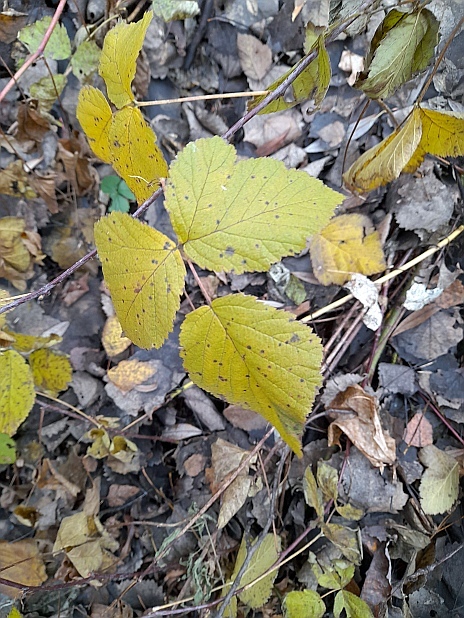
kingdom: Plantae
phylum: Tracheophyta
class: Magnoliopsida
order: Rosales
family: Rosaceae
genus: Rubus
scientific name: Rubus idaeus
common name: Raspberry
